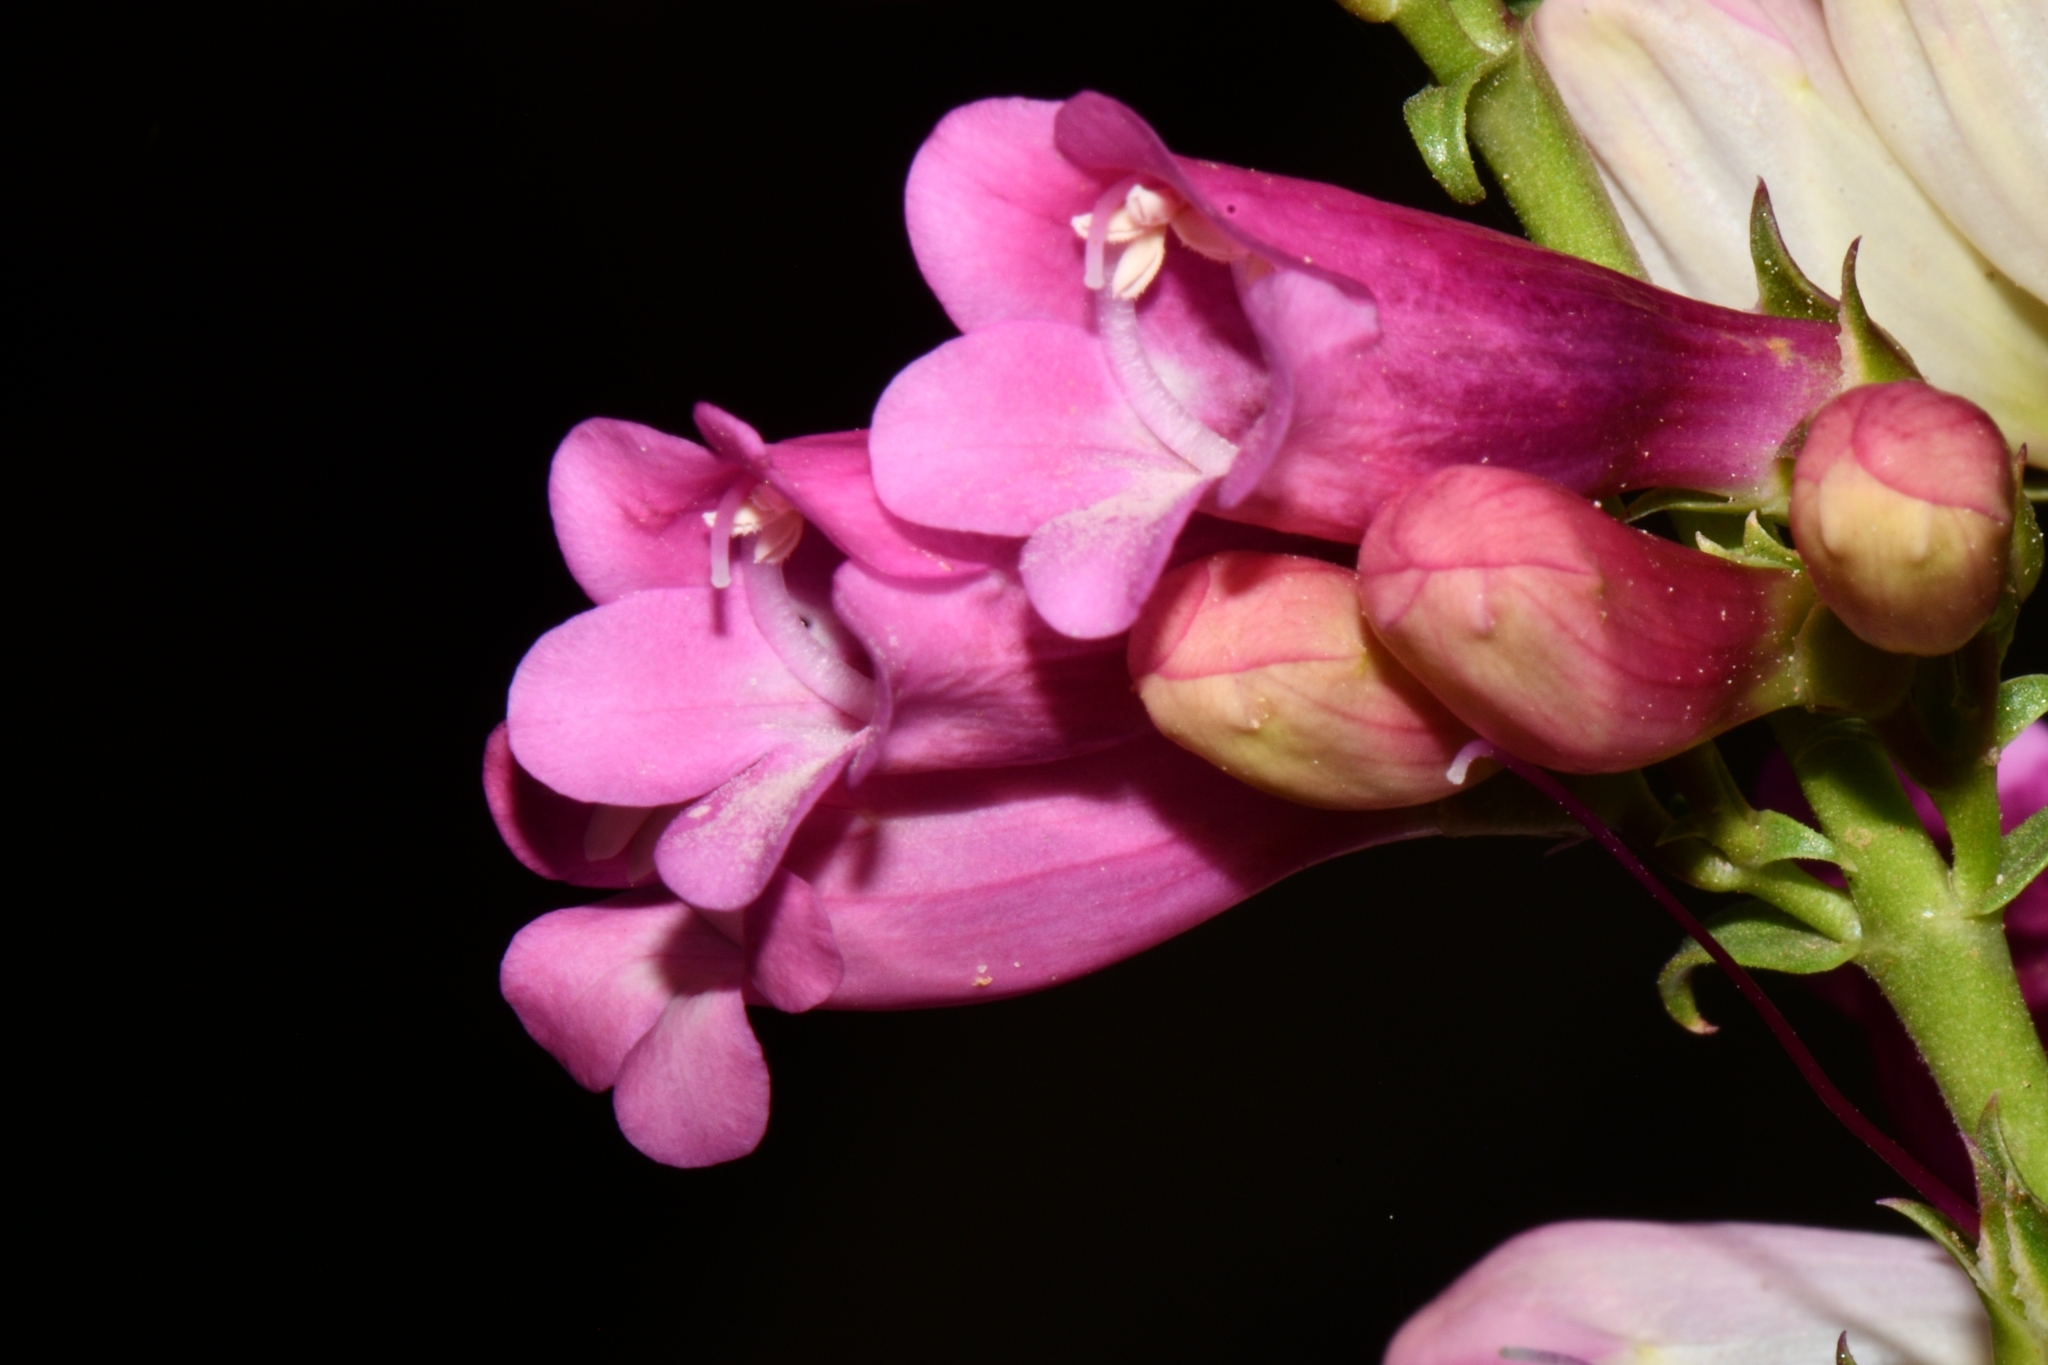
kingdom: Plantae
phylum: Tracheophyta
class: Magnoliopsida
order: Lamiales
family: Plantaginaceae
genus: Penstemon
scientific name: Penstemon jonesii
